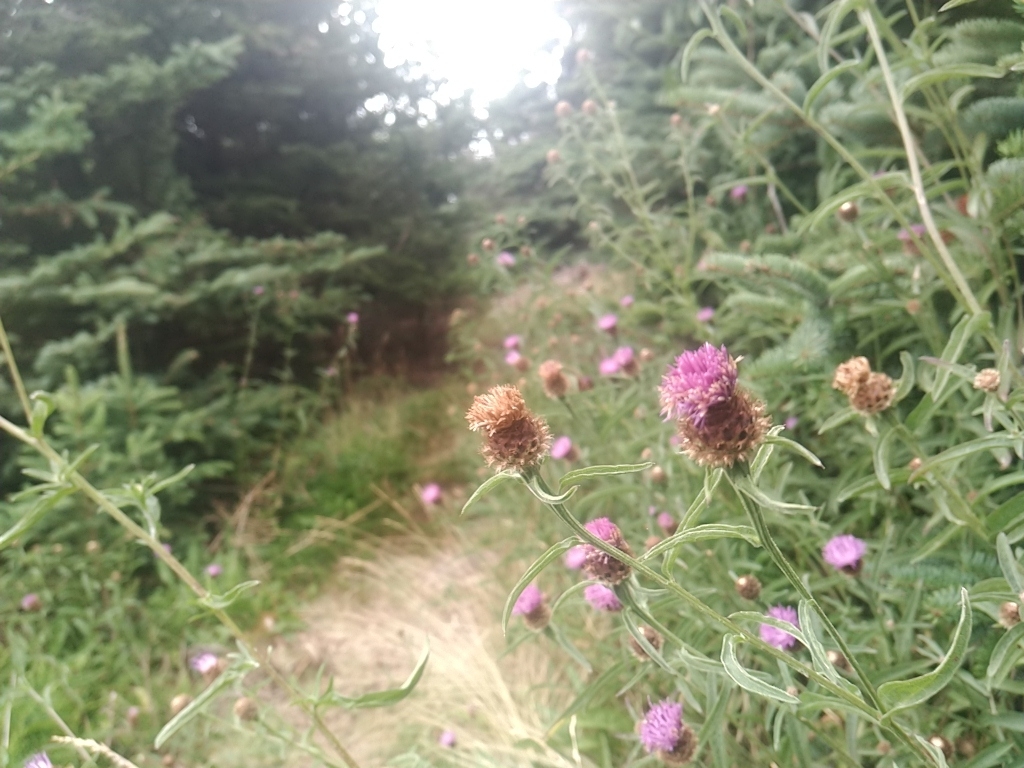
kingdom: Plantae
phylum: Tracheophyta
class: Magnoliopsida
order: Asterales
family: Asteraceae
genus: Centaurea
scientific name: Centaurea nigra
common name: Lesser knapweed
